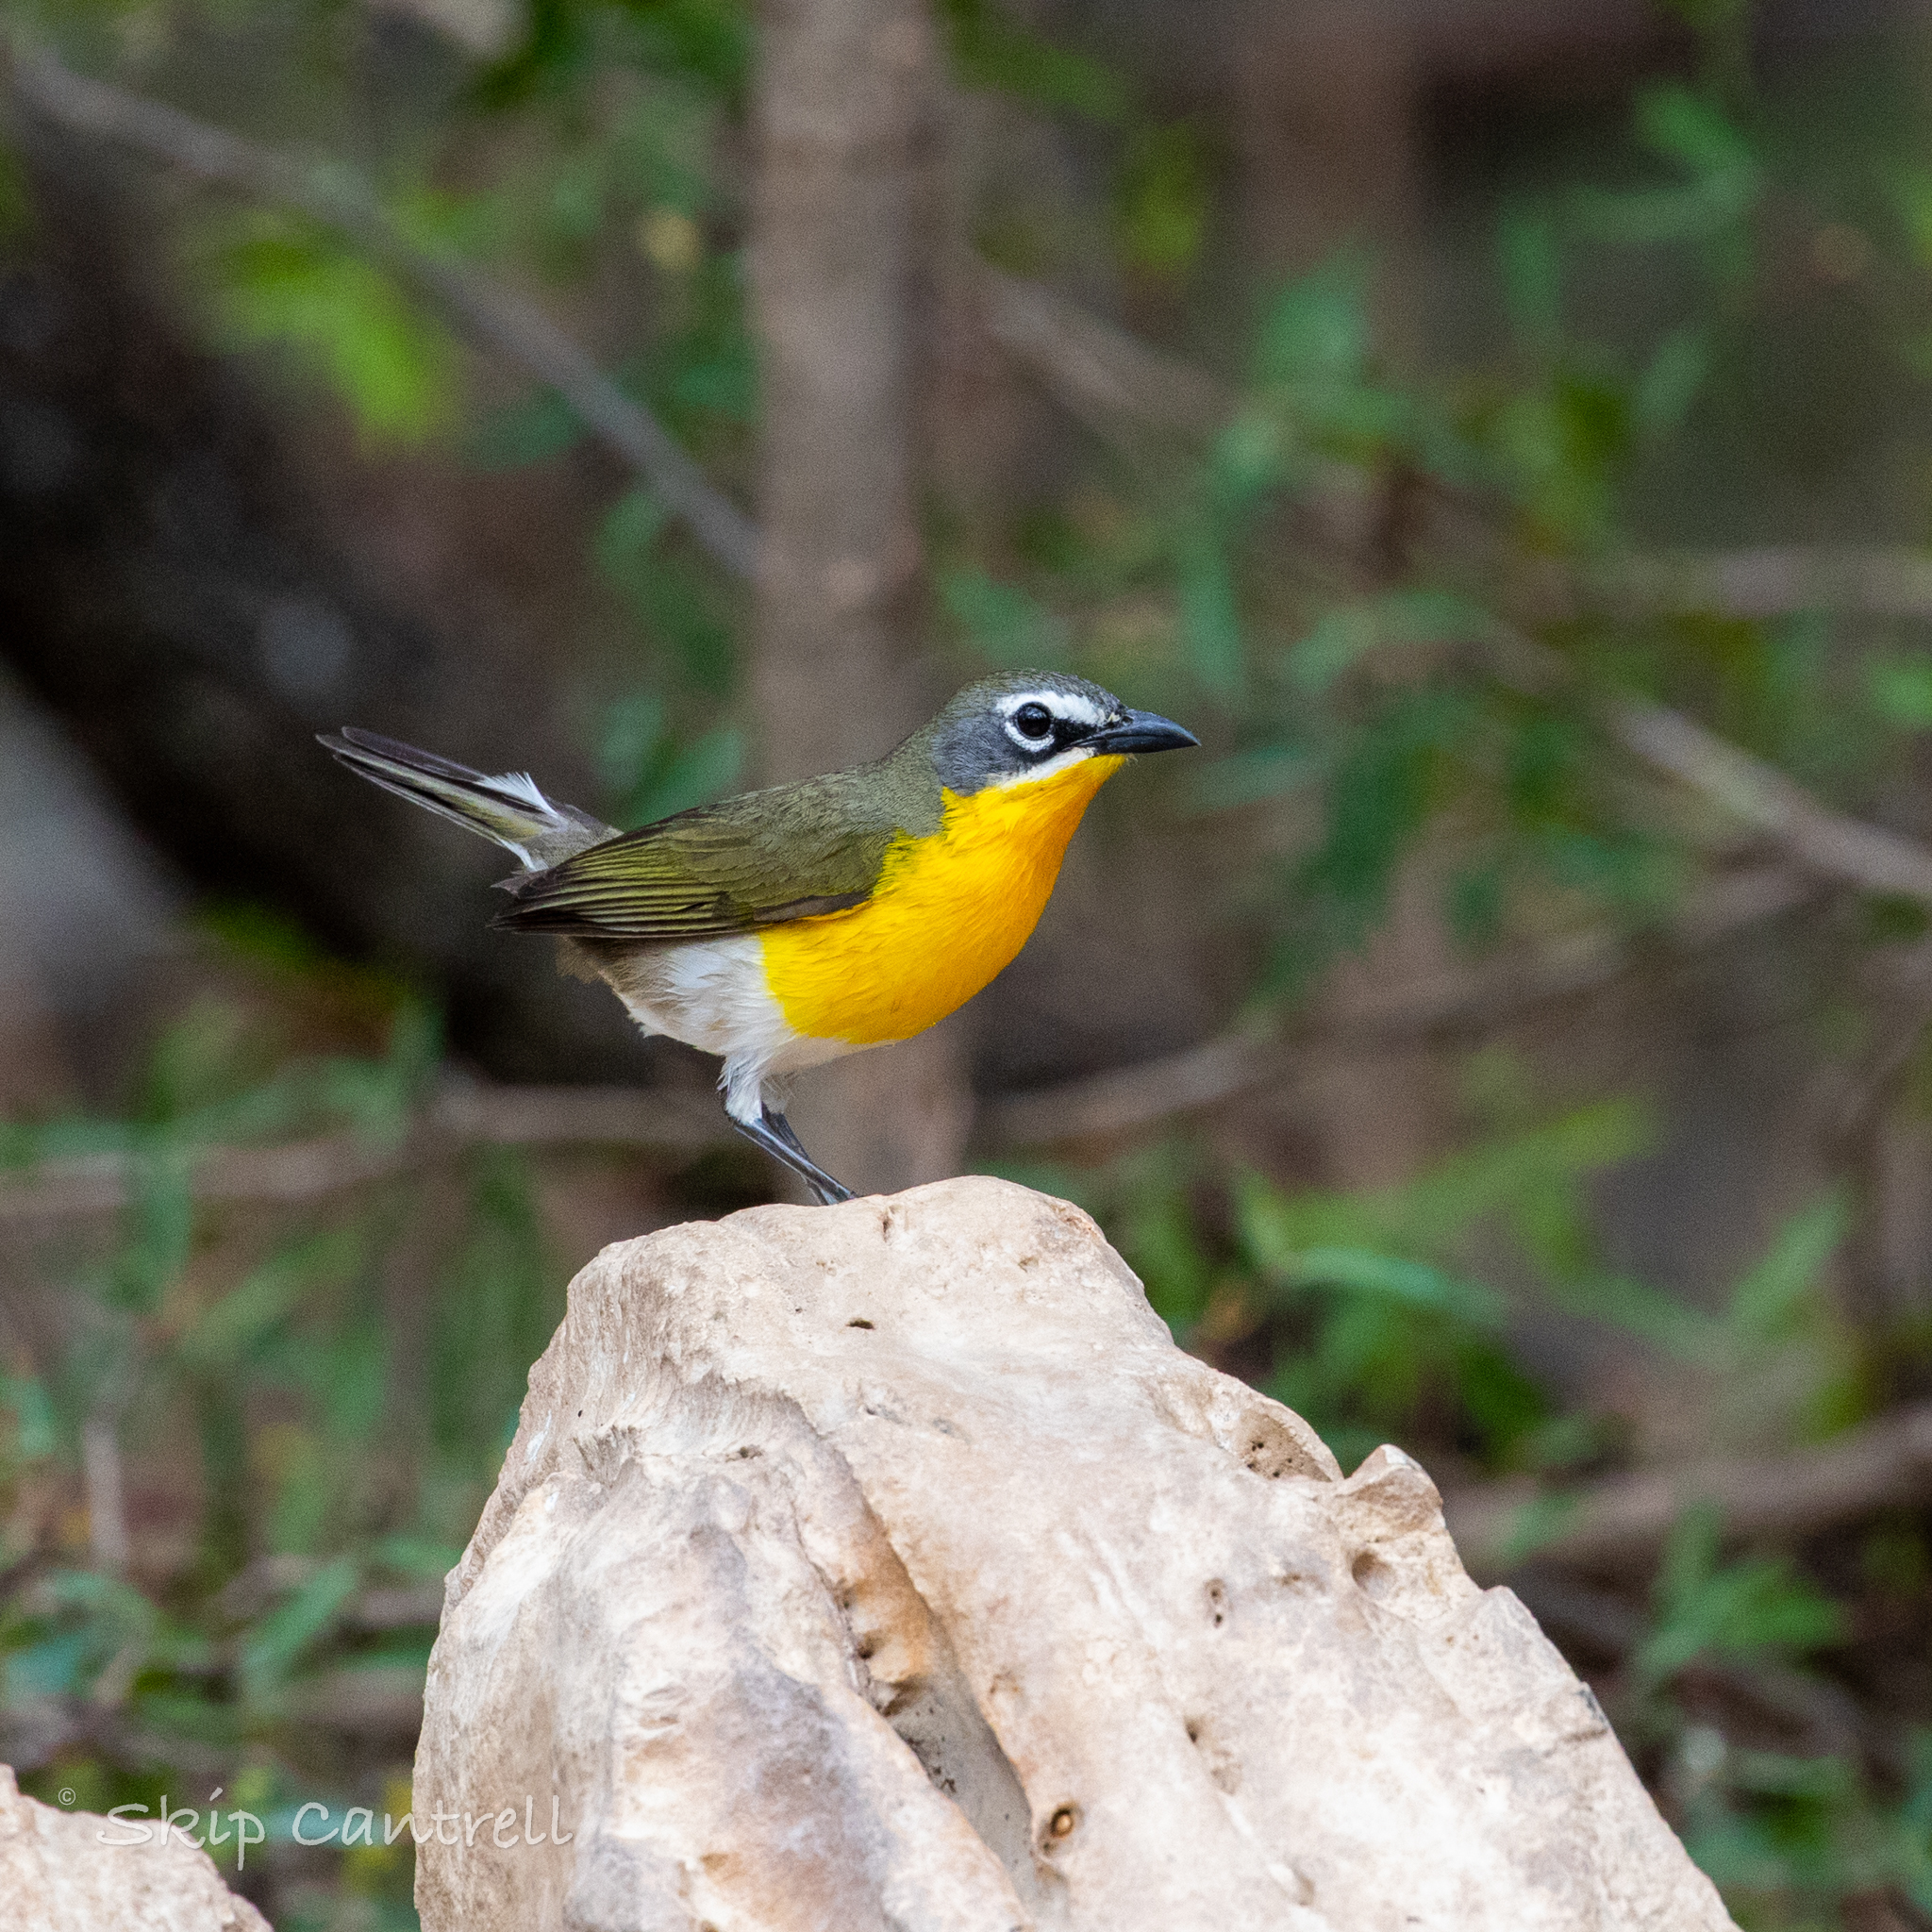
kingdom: Animalia
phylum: Chordata
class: Aves
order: Passeriformes
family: Parulidae
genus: Icteria
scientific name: Icteria virens
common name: Yellow-breasted chat
